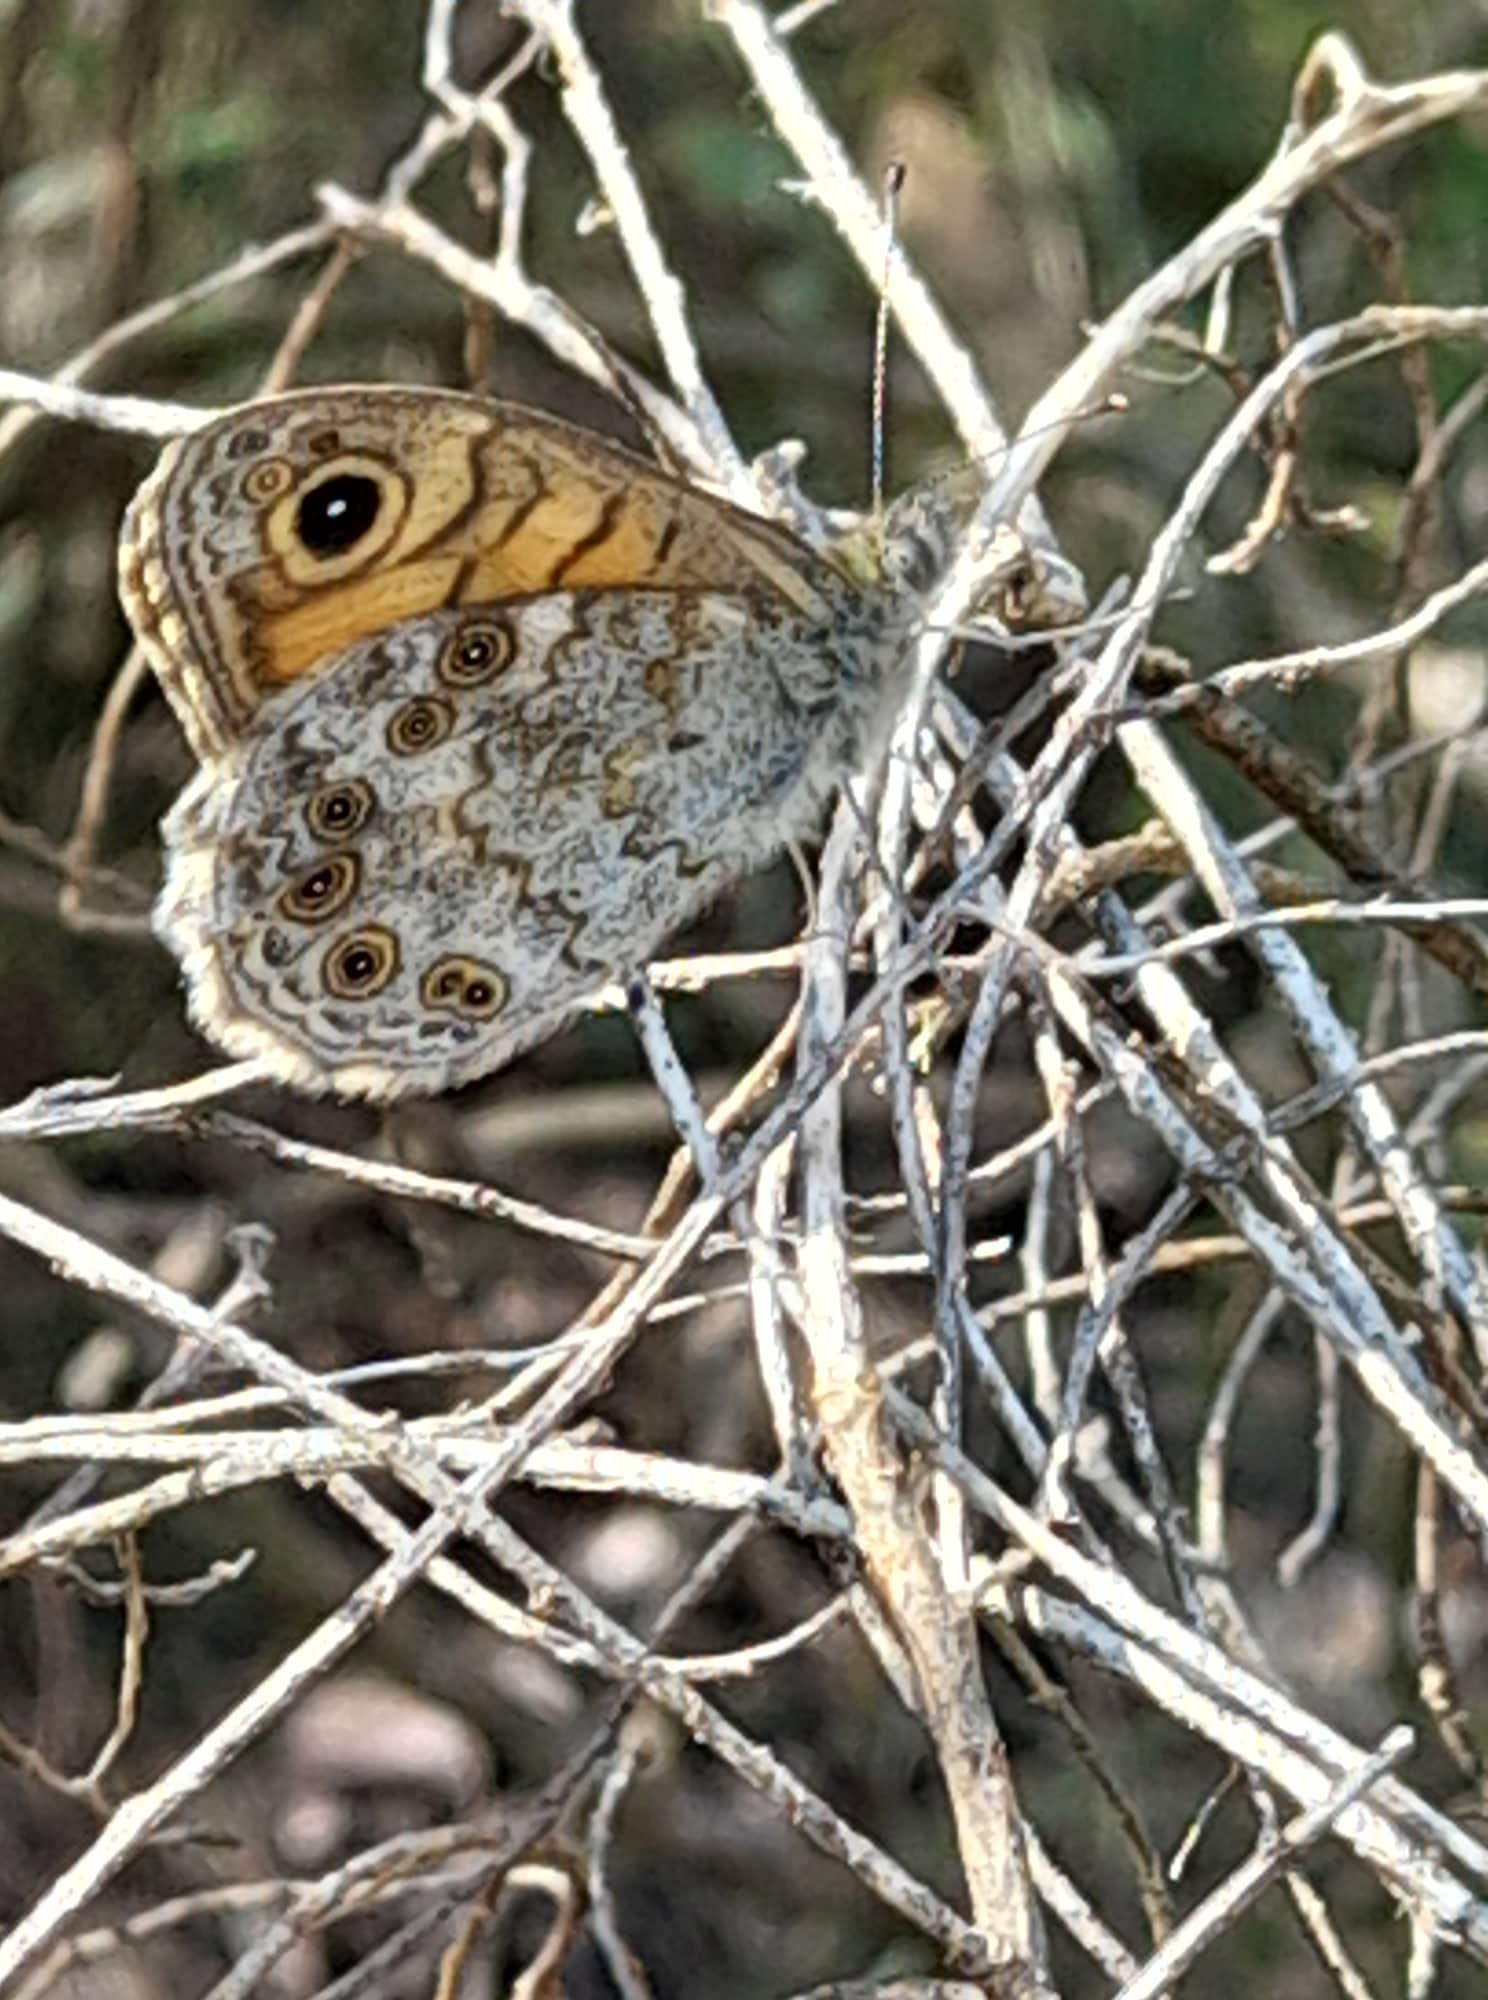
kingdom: Animalia
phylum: Arthropoda
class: Insecta
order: Lepidoptera
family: Nymphalidae
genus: Pararge
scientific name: Pararge Lasiommata megera
